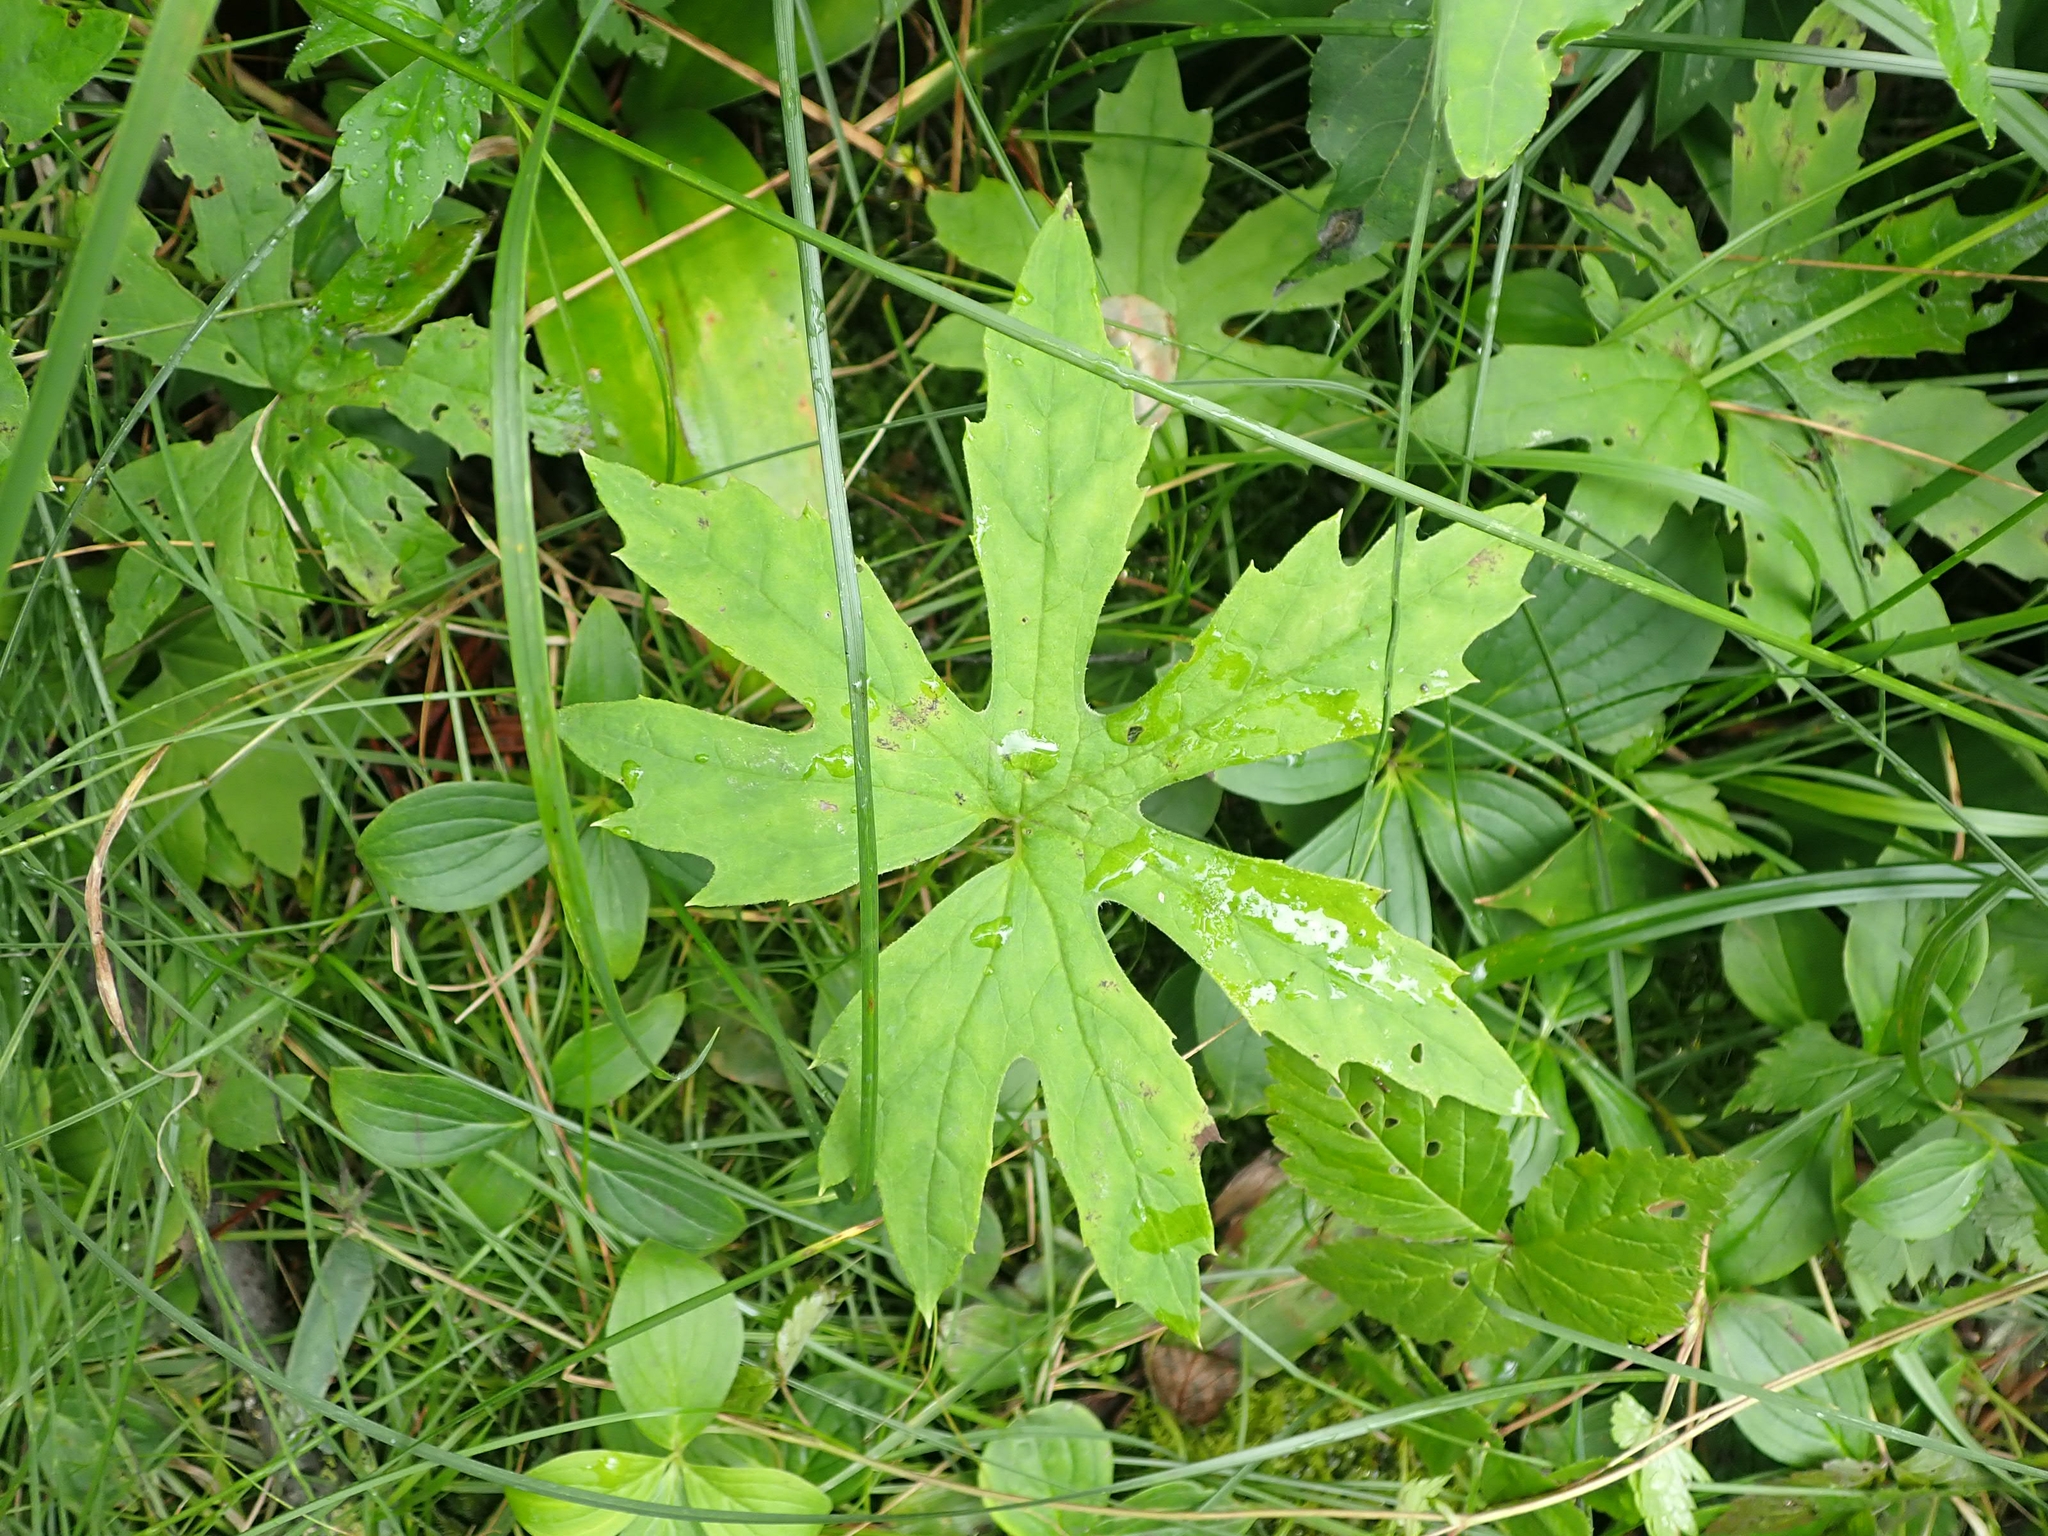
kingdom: Plantae
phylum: Tracheophyta
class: Magnoliopsida
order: Asterales
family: Asteraceae
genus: Petasites
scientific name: Petasites frigidus
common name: Arctic butterbur
